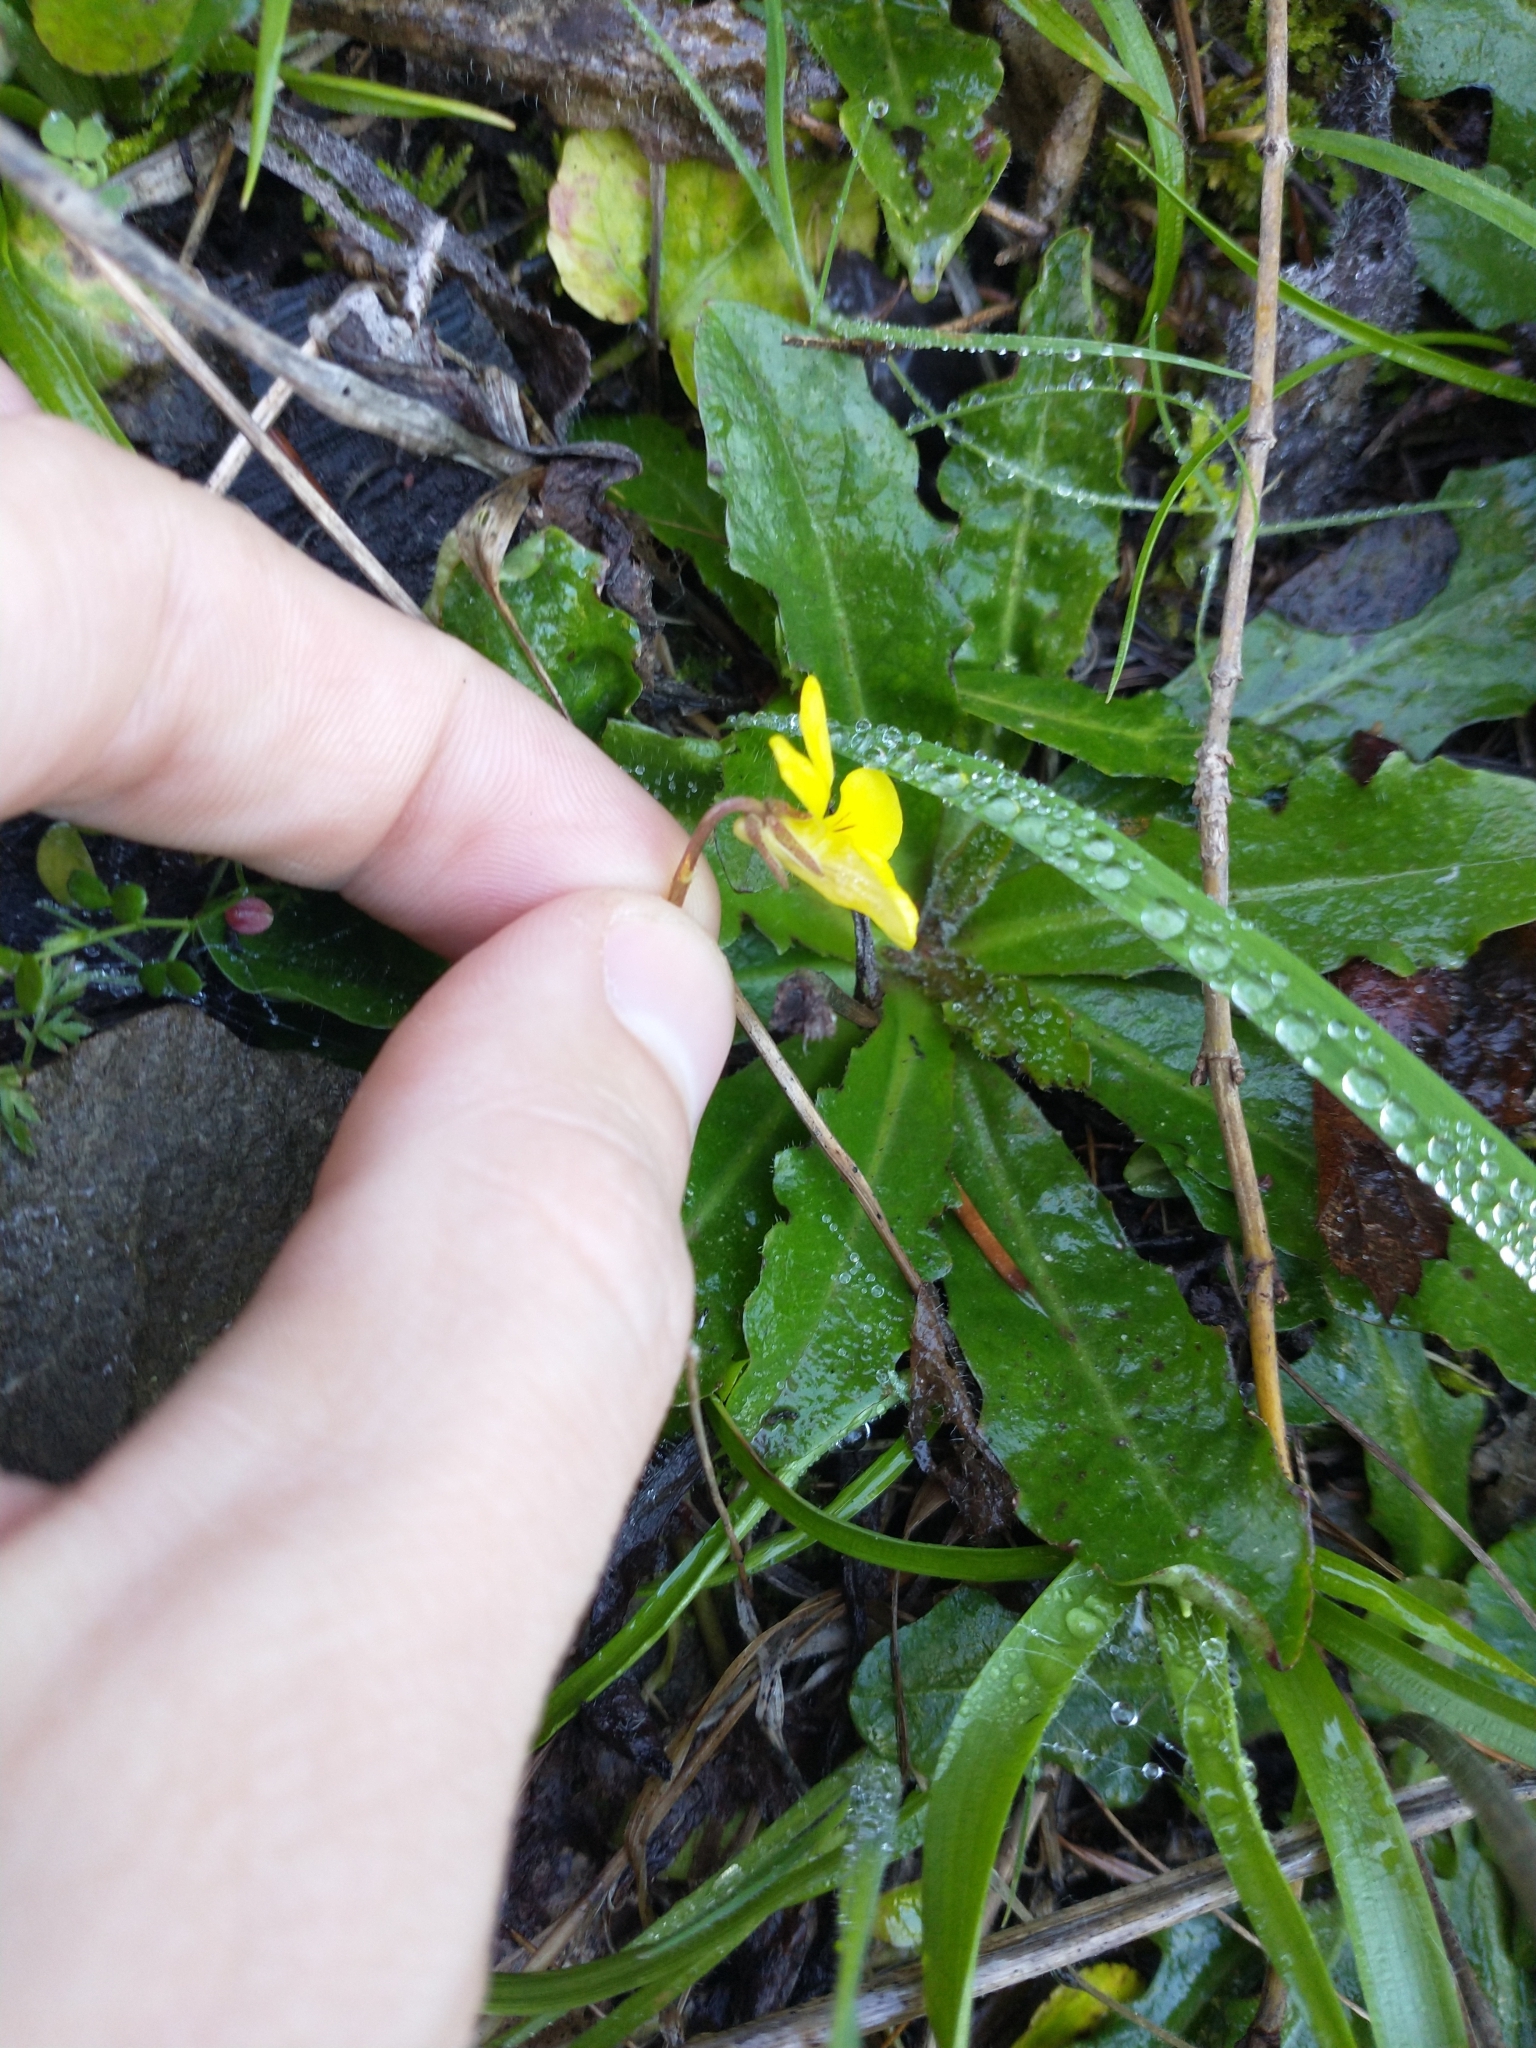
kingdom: Plantae
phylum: Tracheophyta
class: Magnoliopsida
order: Malpighiales
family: Violaceae
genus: Viola
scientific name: Viola sempervirens
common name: Evergreen violet
